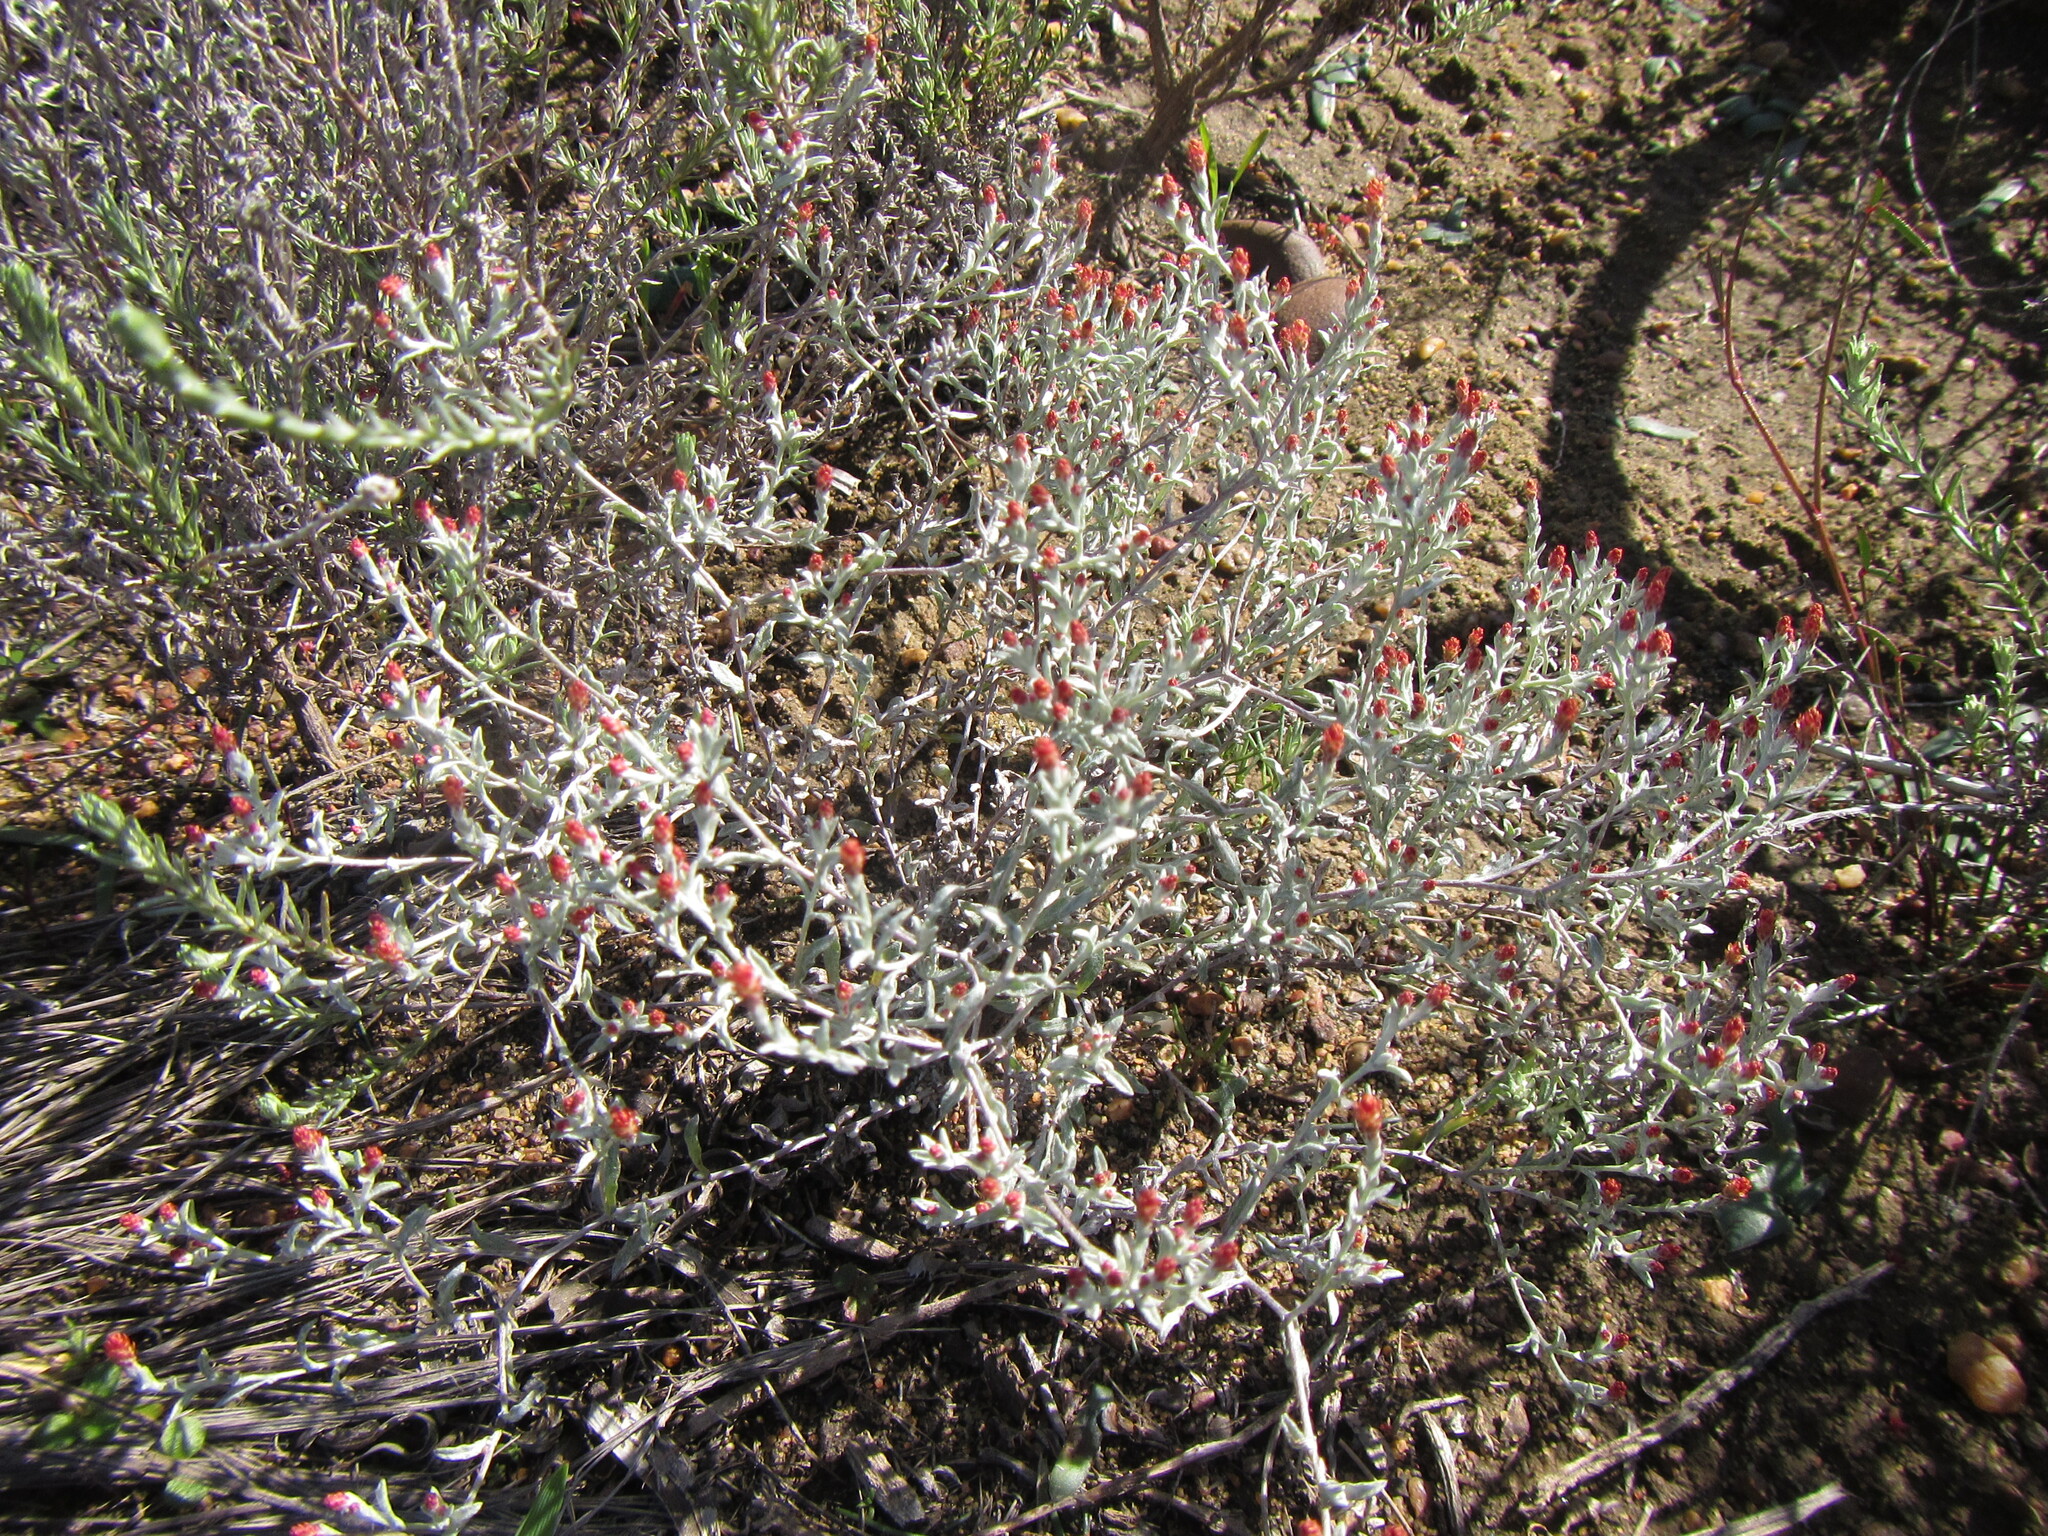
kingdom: Plantae
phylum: Tracheophyta
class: Magnoliopsida
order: Asterales
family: Asteraceae
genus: Helichrysum
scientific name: Helichrysum cylindriflorum
